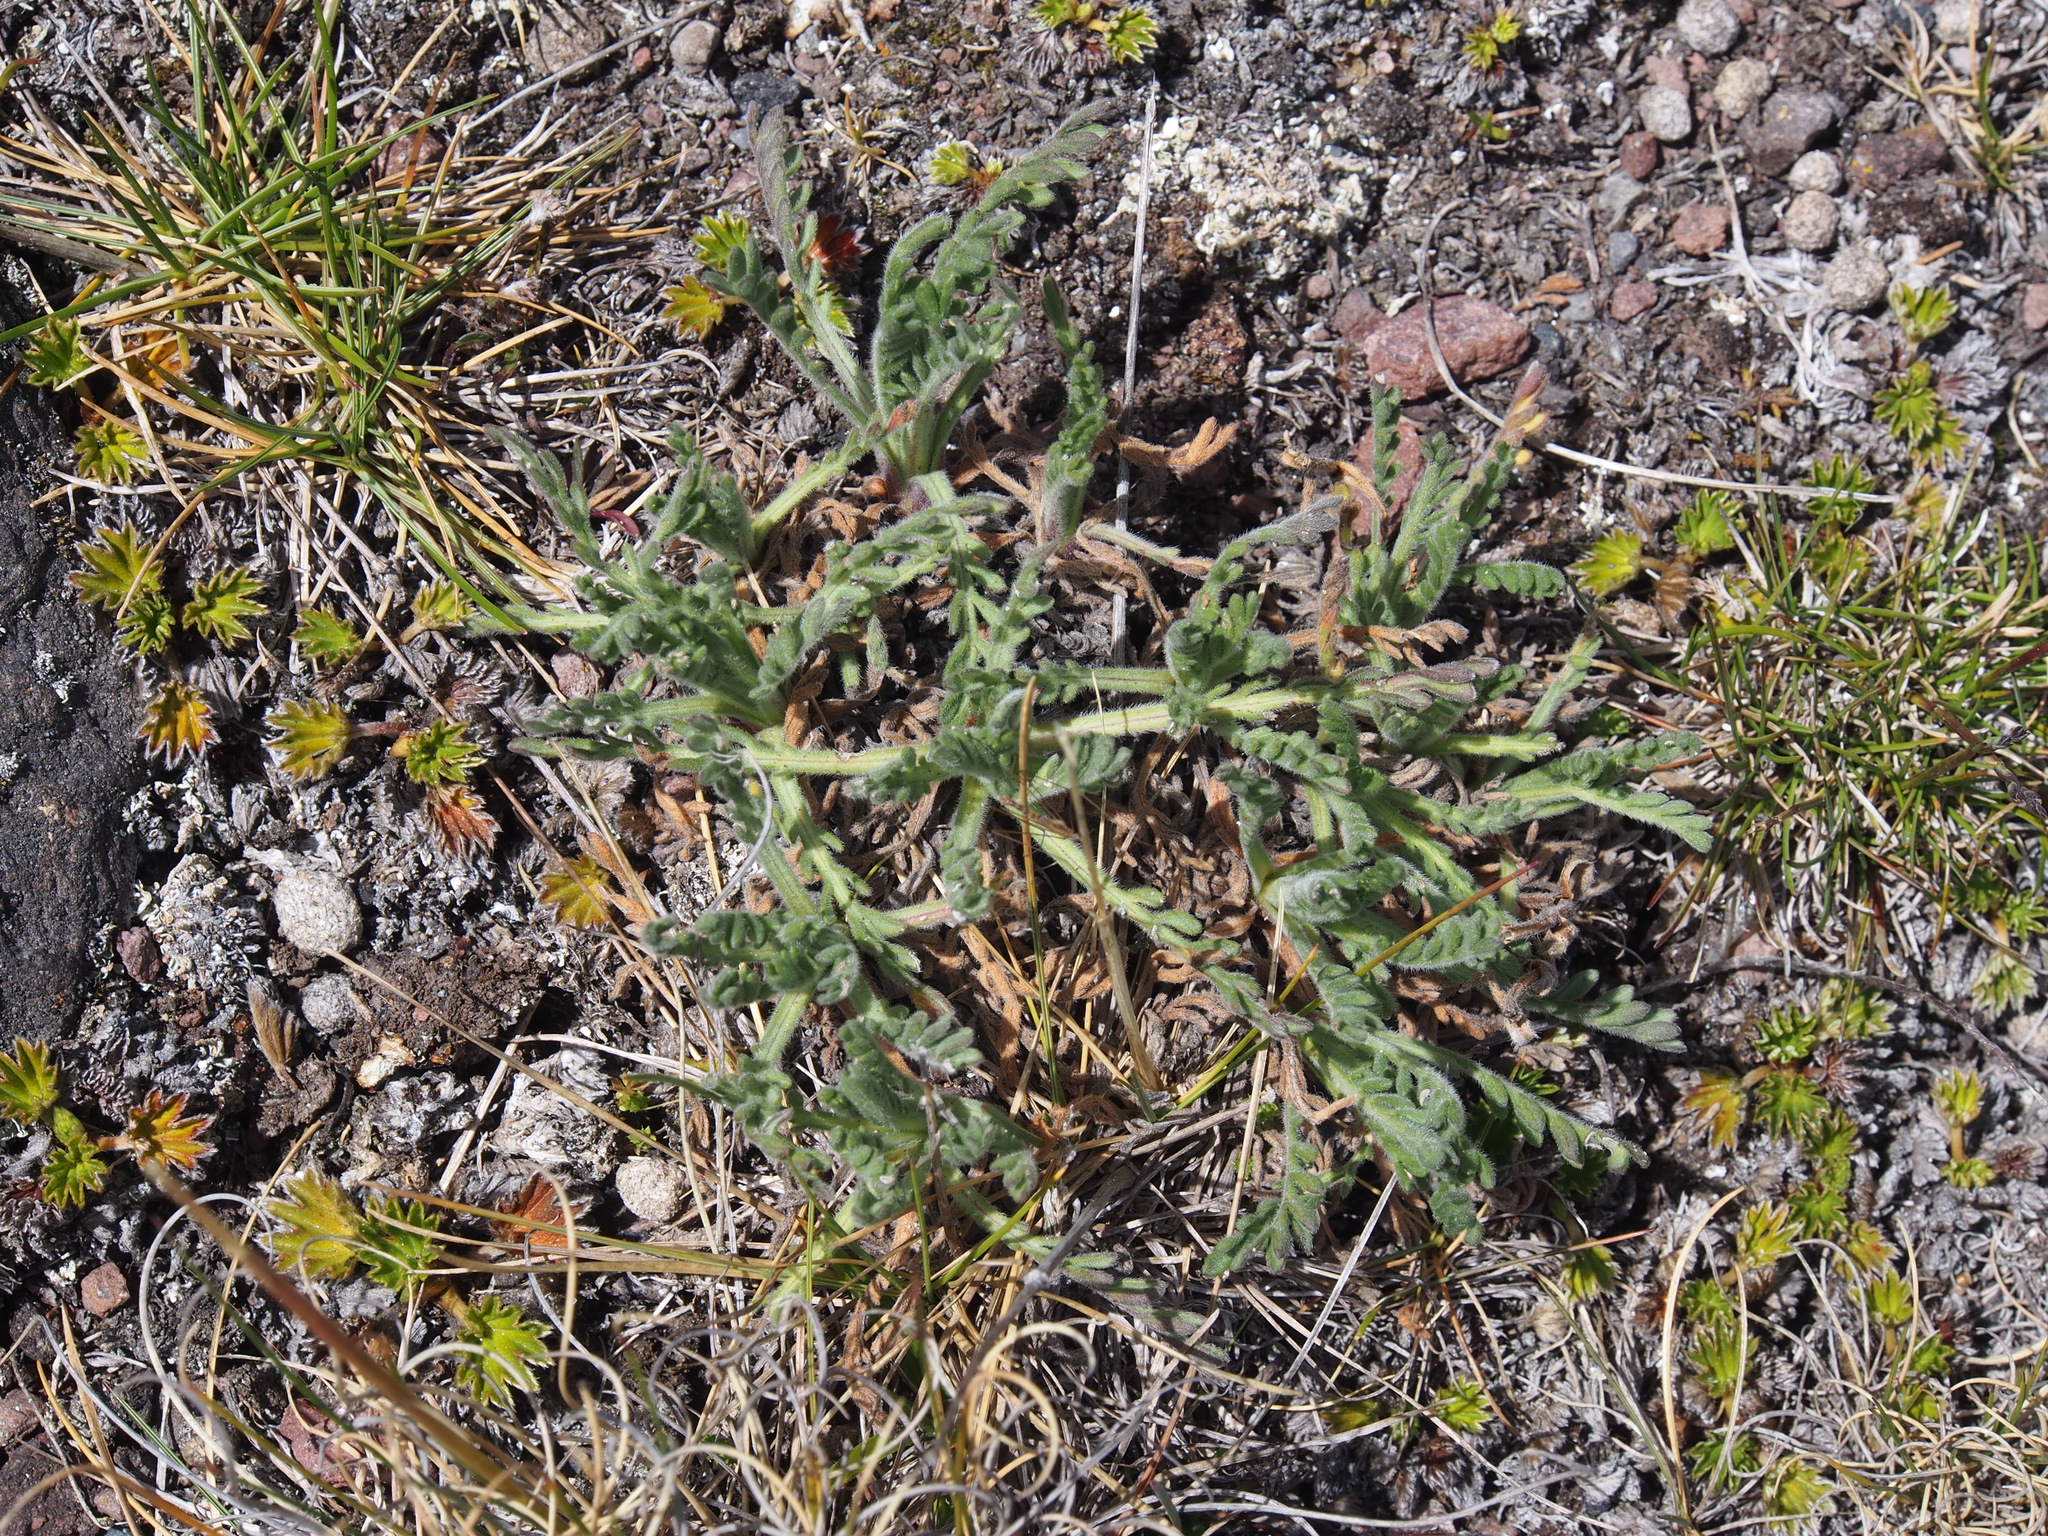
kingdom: Plantae
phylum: Tracheophyta
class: Magnoliopsida
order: Asterales
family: Asteraceae
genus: Erigeron
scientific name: Erigeron cardaminifolius
